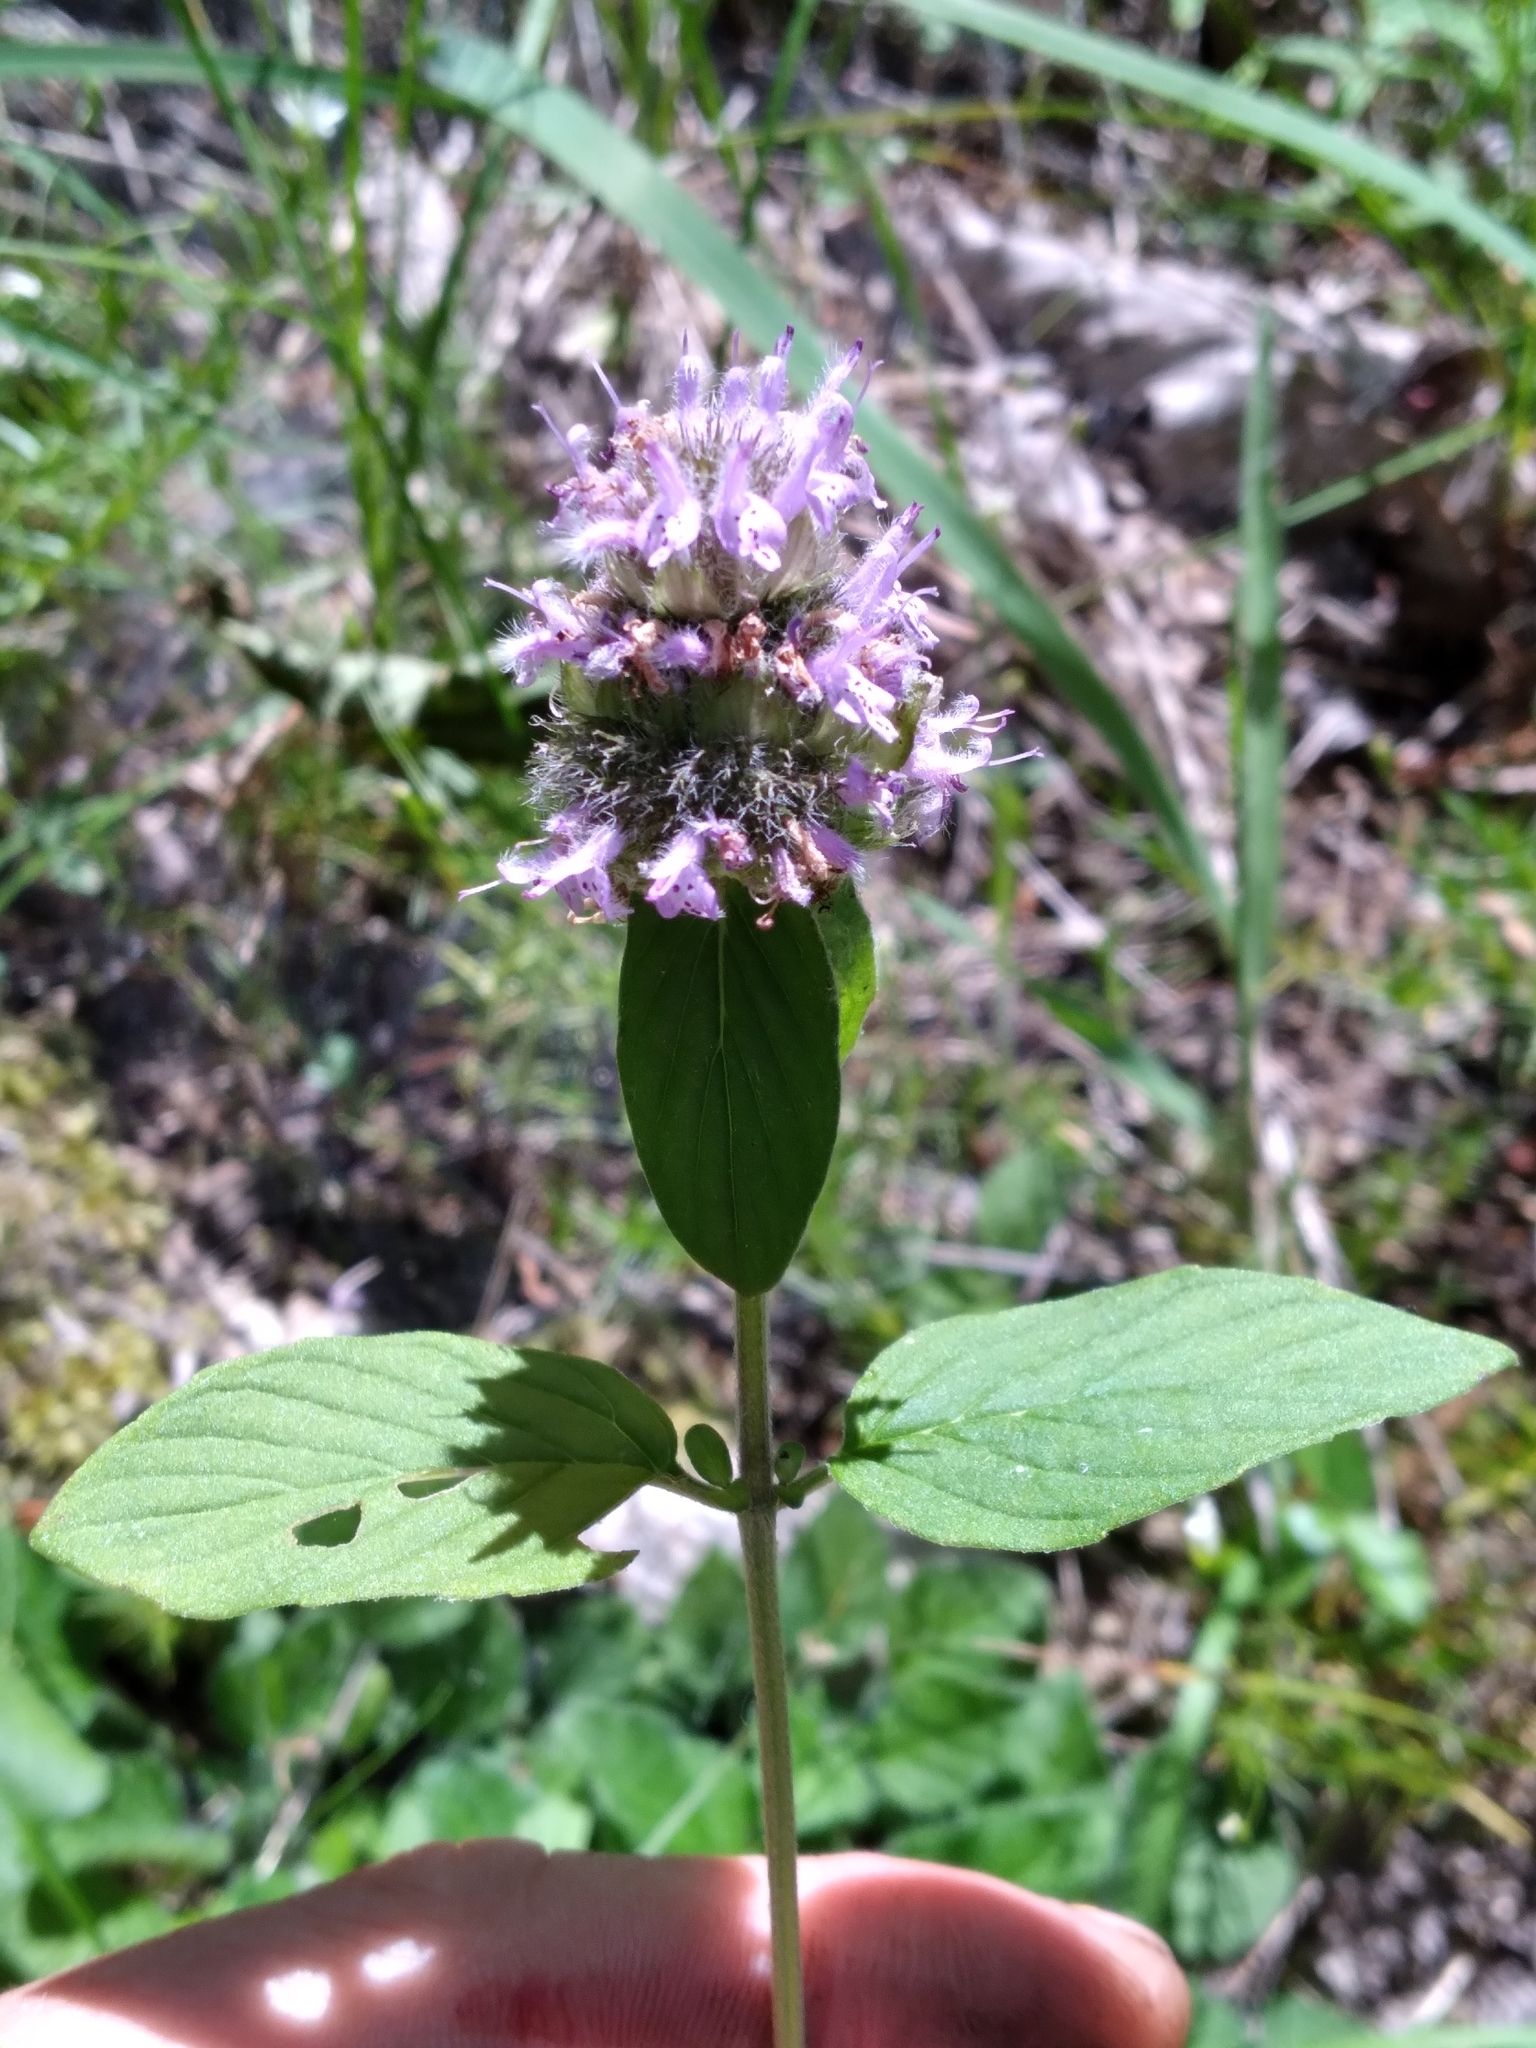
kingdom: Plantae
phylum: Tracheophyta
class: Magnoliopsida
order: Lamiales
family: Lamiaceae
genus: Blephilia
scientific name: Blephilia ciliata
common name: Downy blephilia
